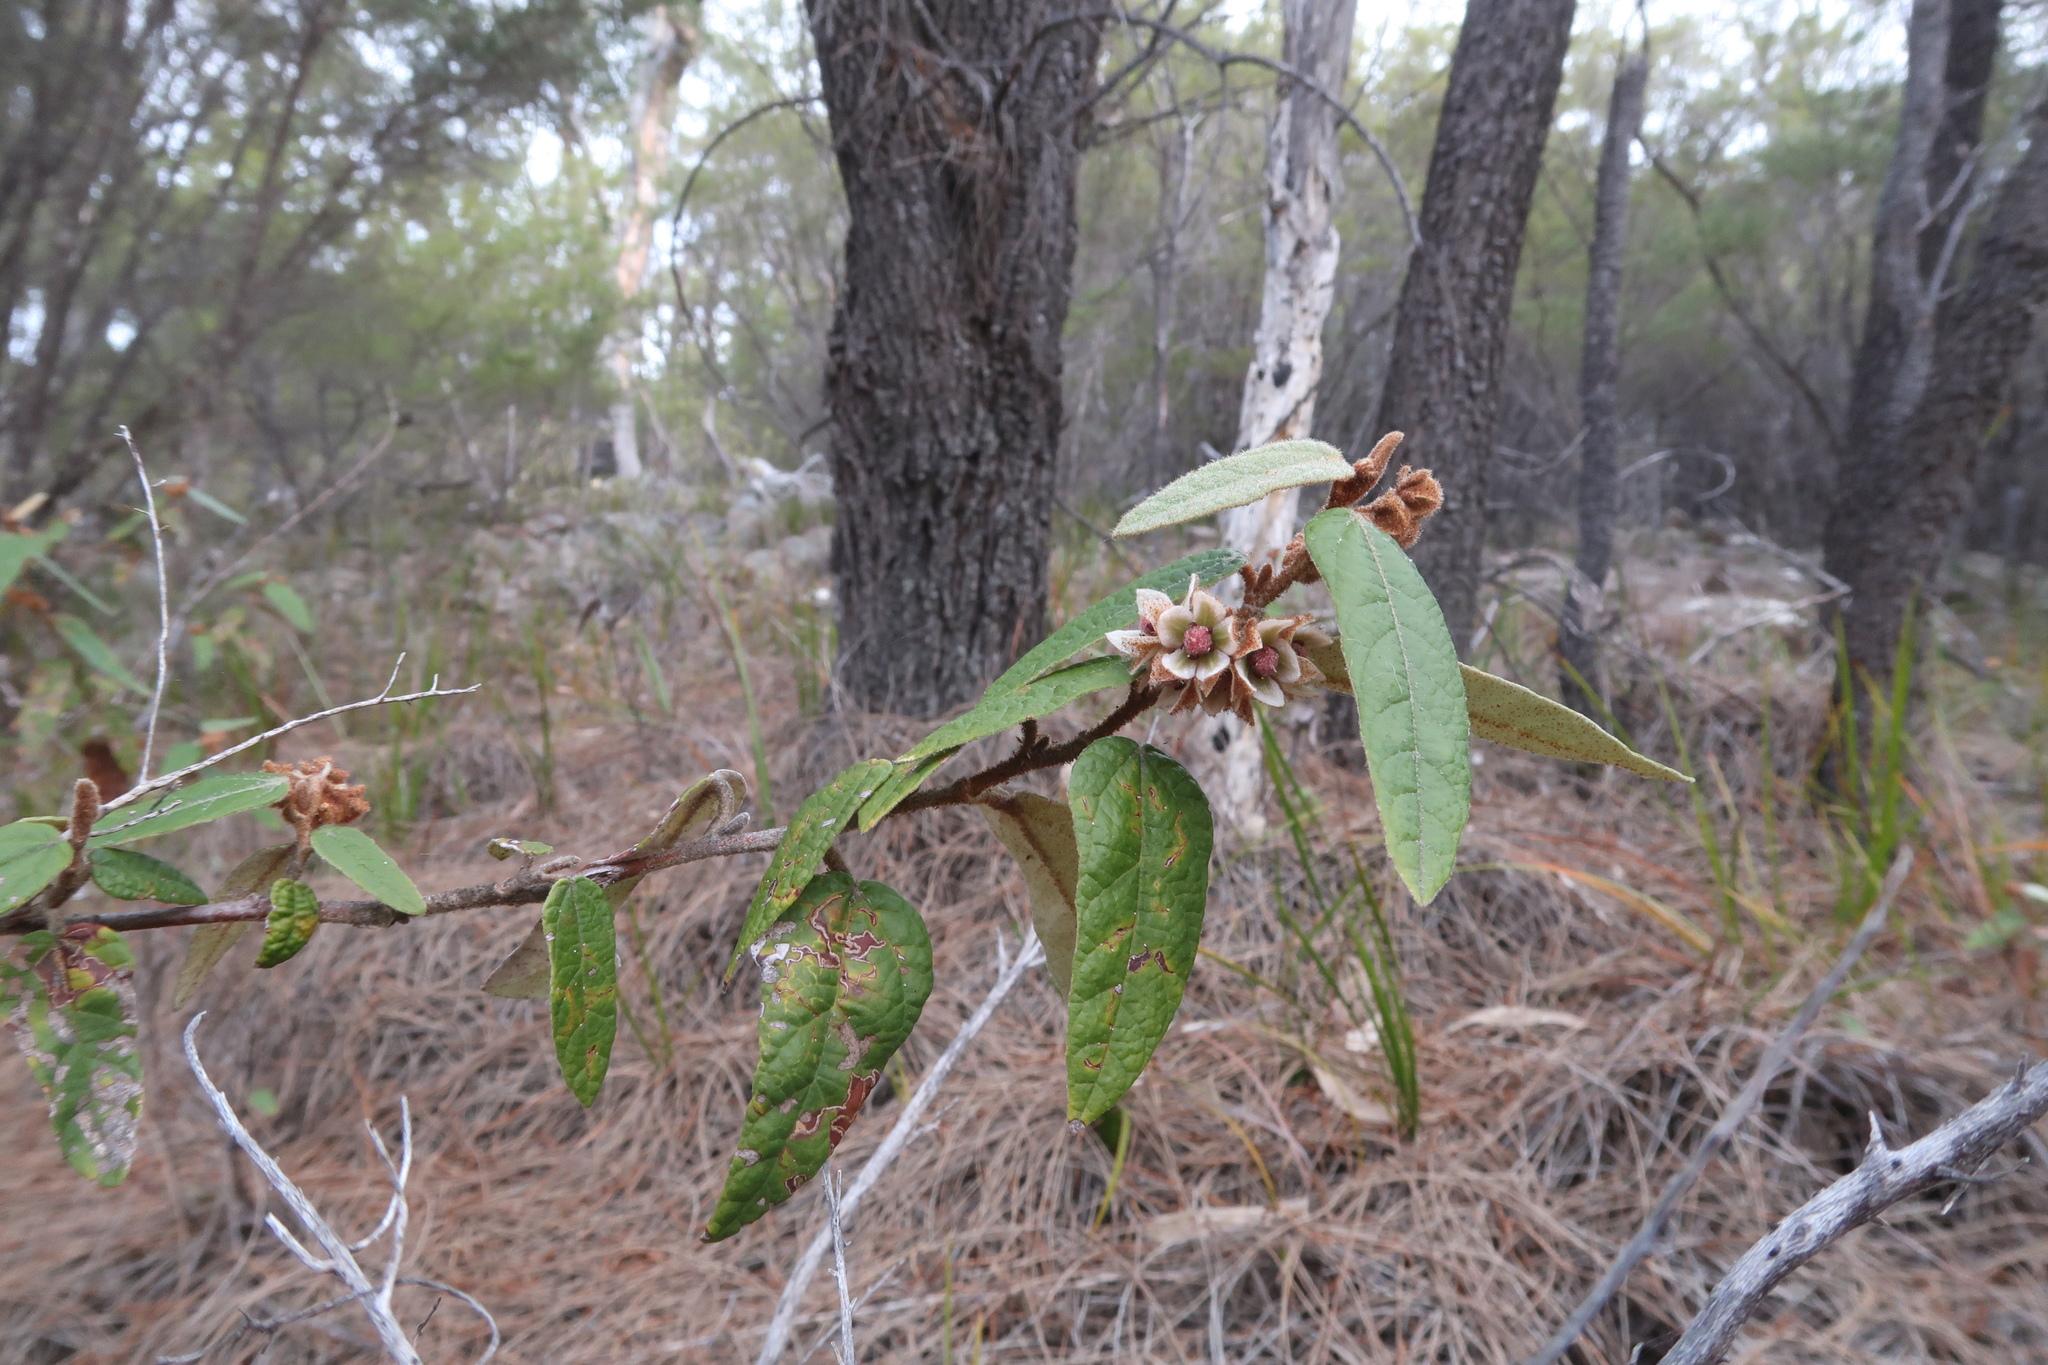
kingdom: Plantae
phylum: Tracheophyta
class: Magnoliopsida
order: Malvales
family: Malvaceae
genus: Lasiopetalum
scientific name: Lasiopetalum macrophyllum
